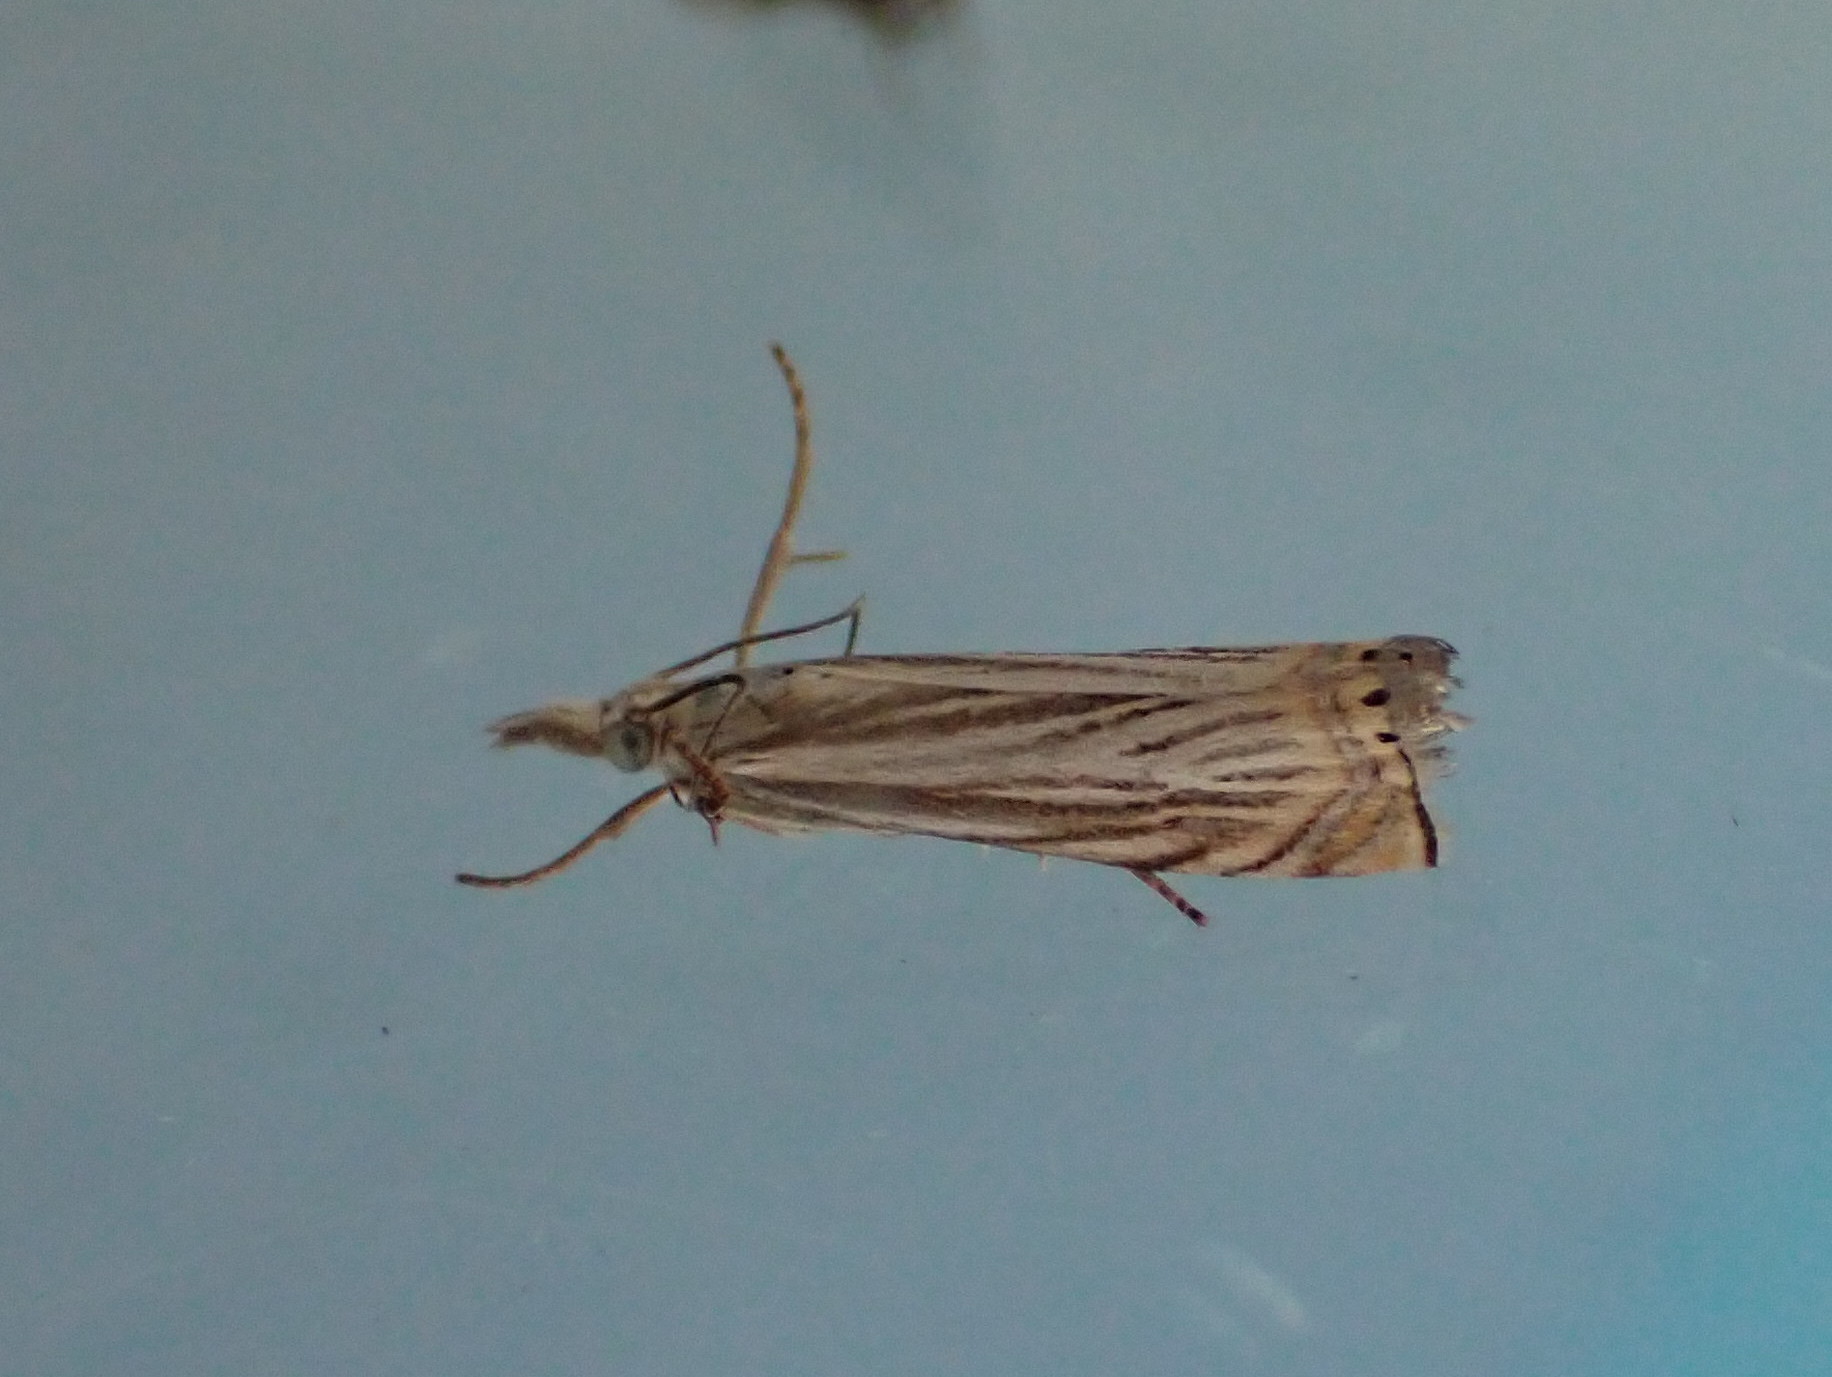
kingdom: Animalia
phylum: Arthropoda
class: Insecta
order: Lepidoptera
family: Crambidae
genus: Chrysoteuchia
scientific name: Chrysoteuchia topiarius
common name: Topiary grass-veneer
